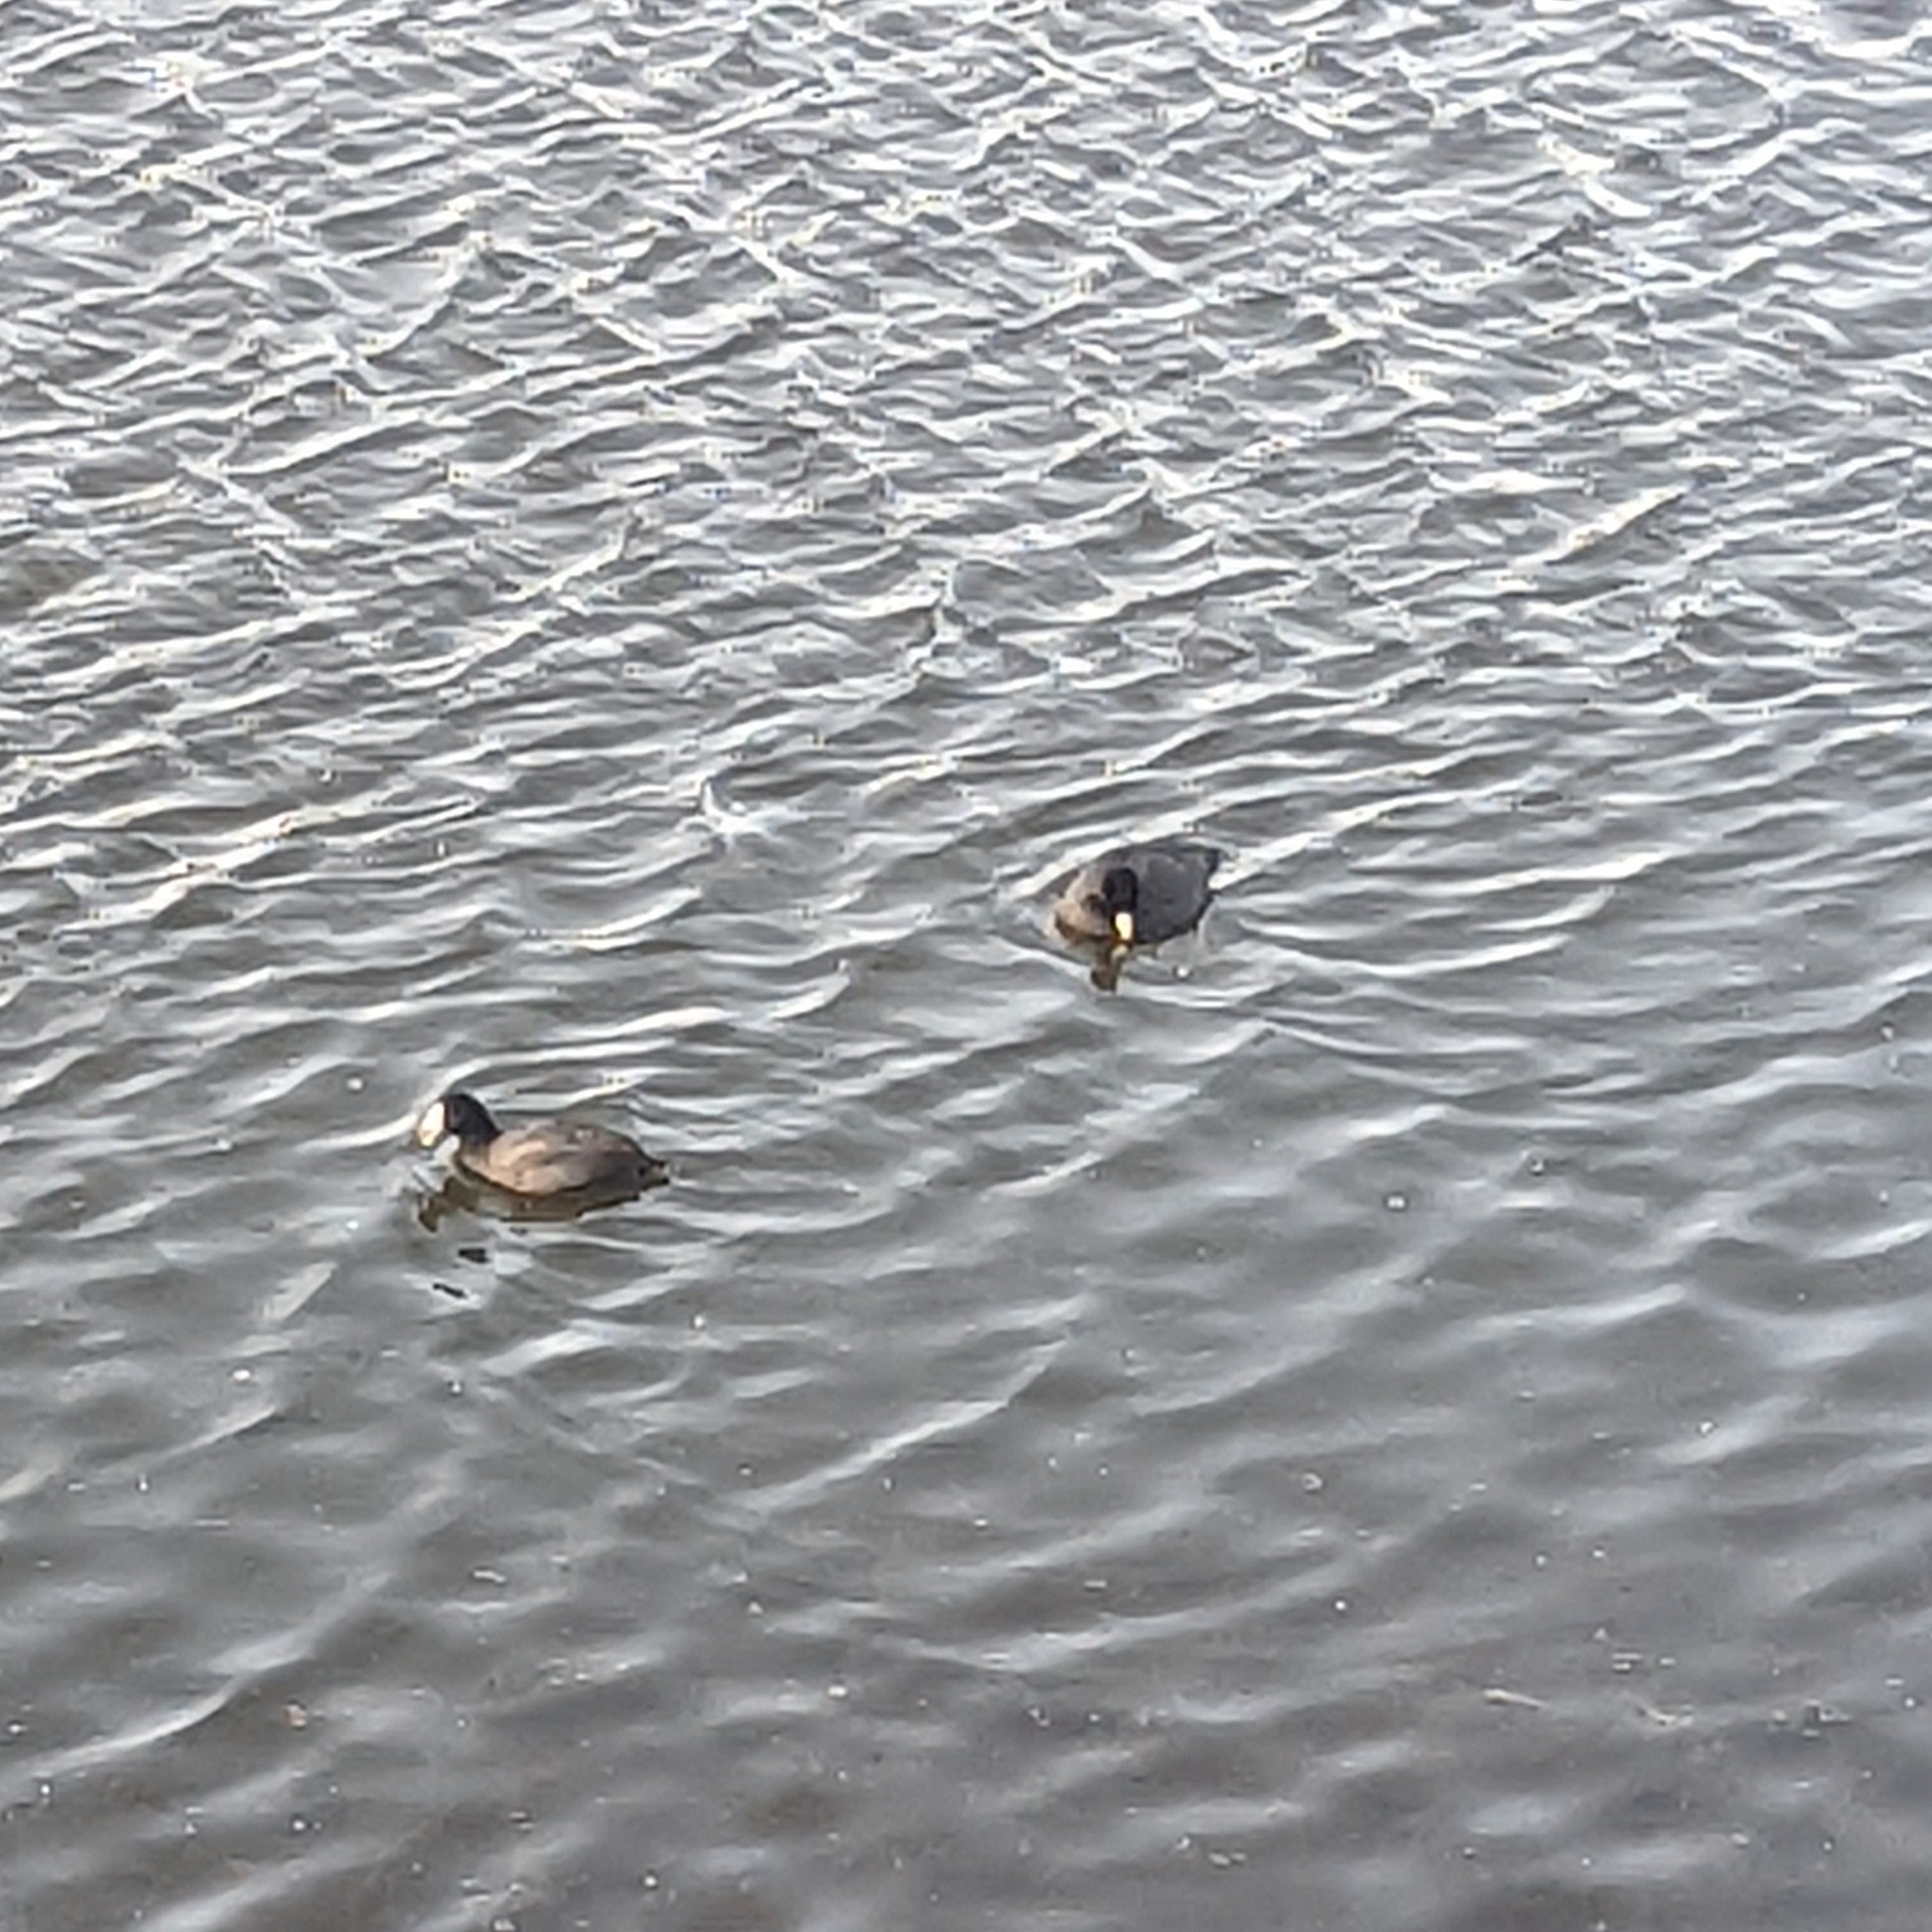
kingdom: Animalia
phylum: Chordata
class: Aves
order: Gruiformes
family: Rallidae
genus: Fulica
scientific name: Fulica americana
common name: American coot
